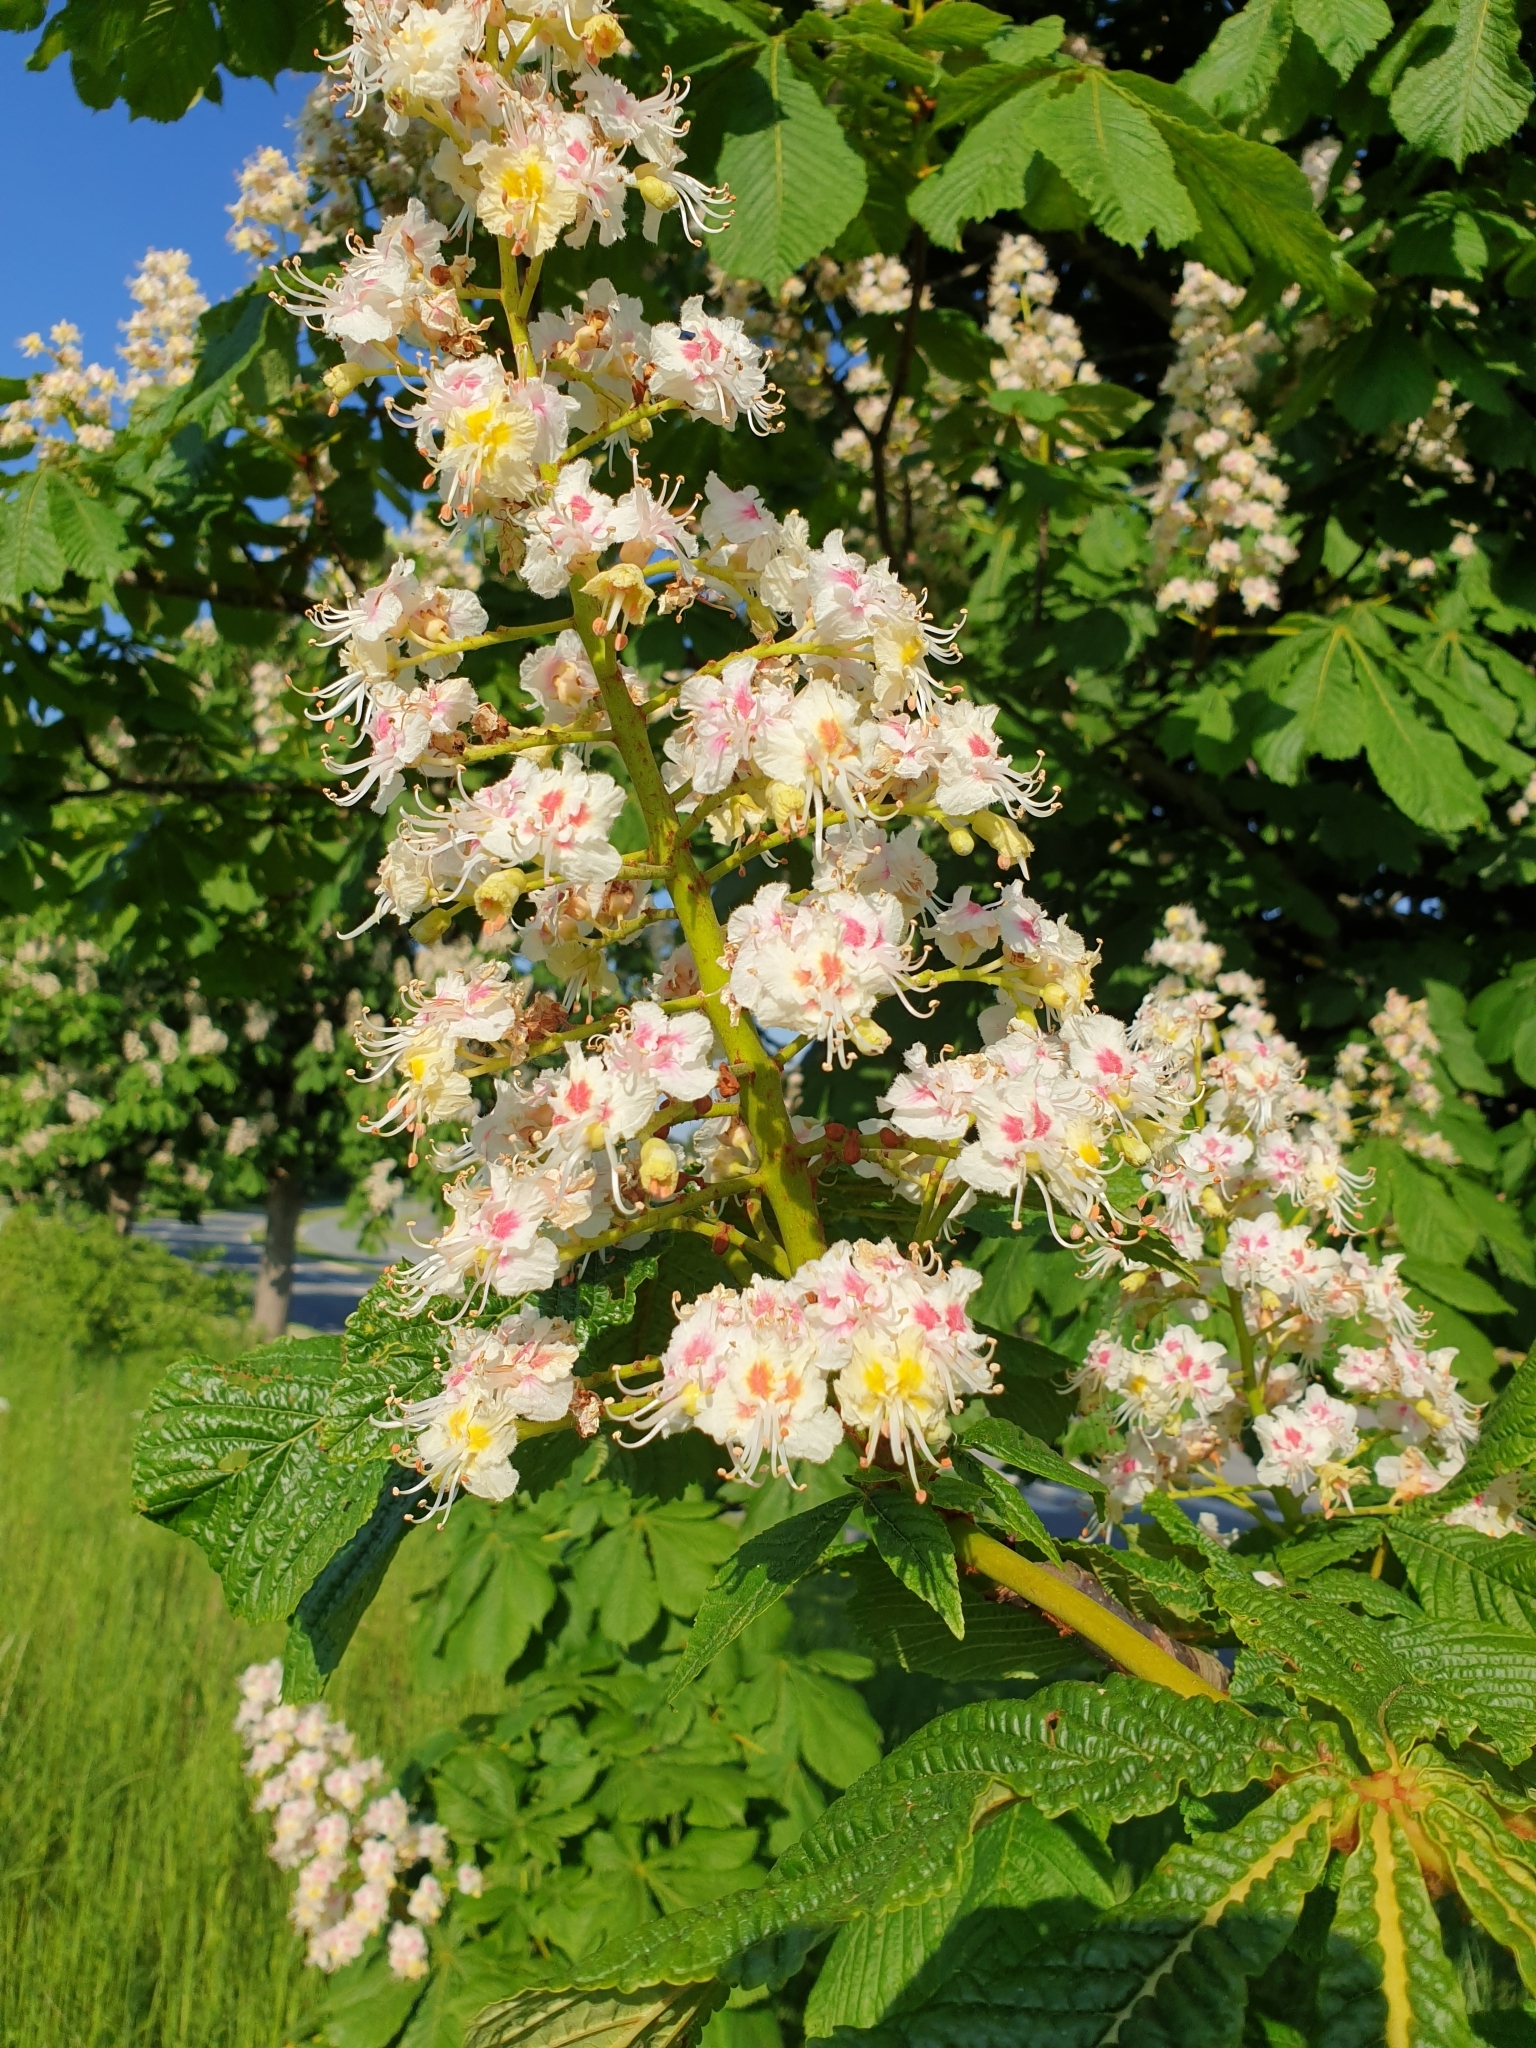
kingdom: Plantae
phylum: Tracheophyta
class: Magnoliopsida
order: Sapindales
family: Sapindaceae
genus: Aesculus
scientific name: Aesculus hippocastanum
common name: Horse-chestnut
